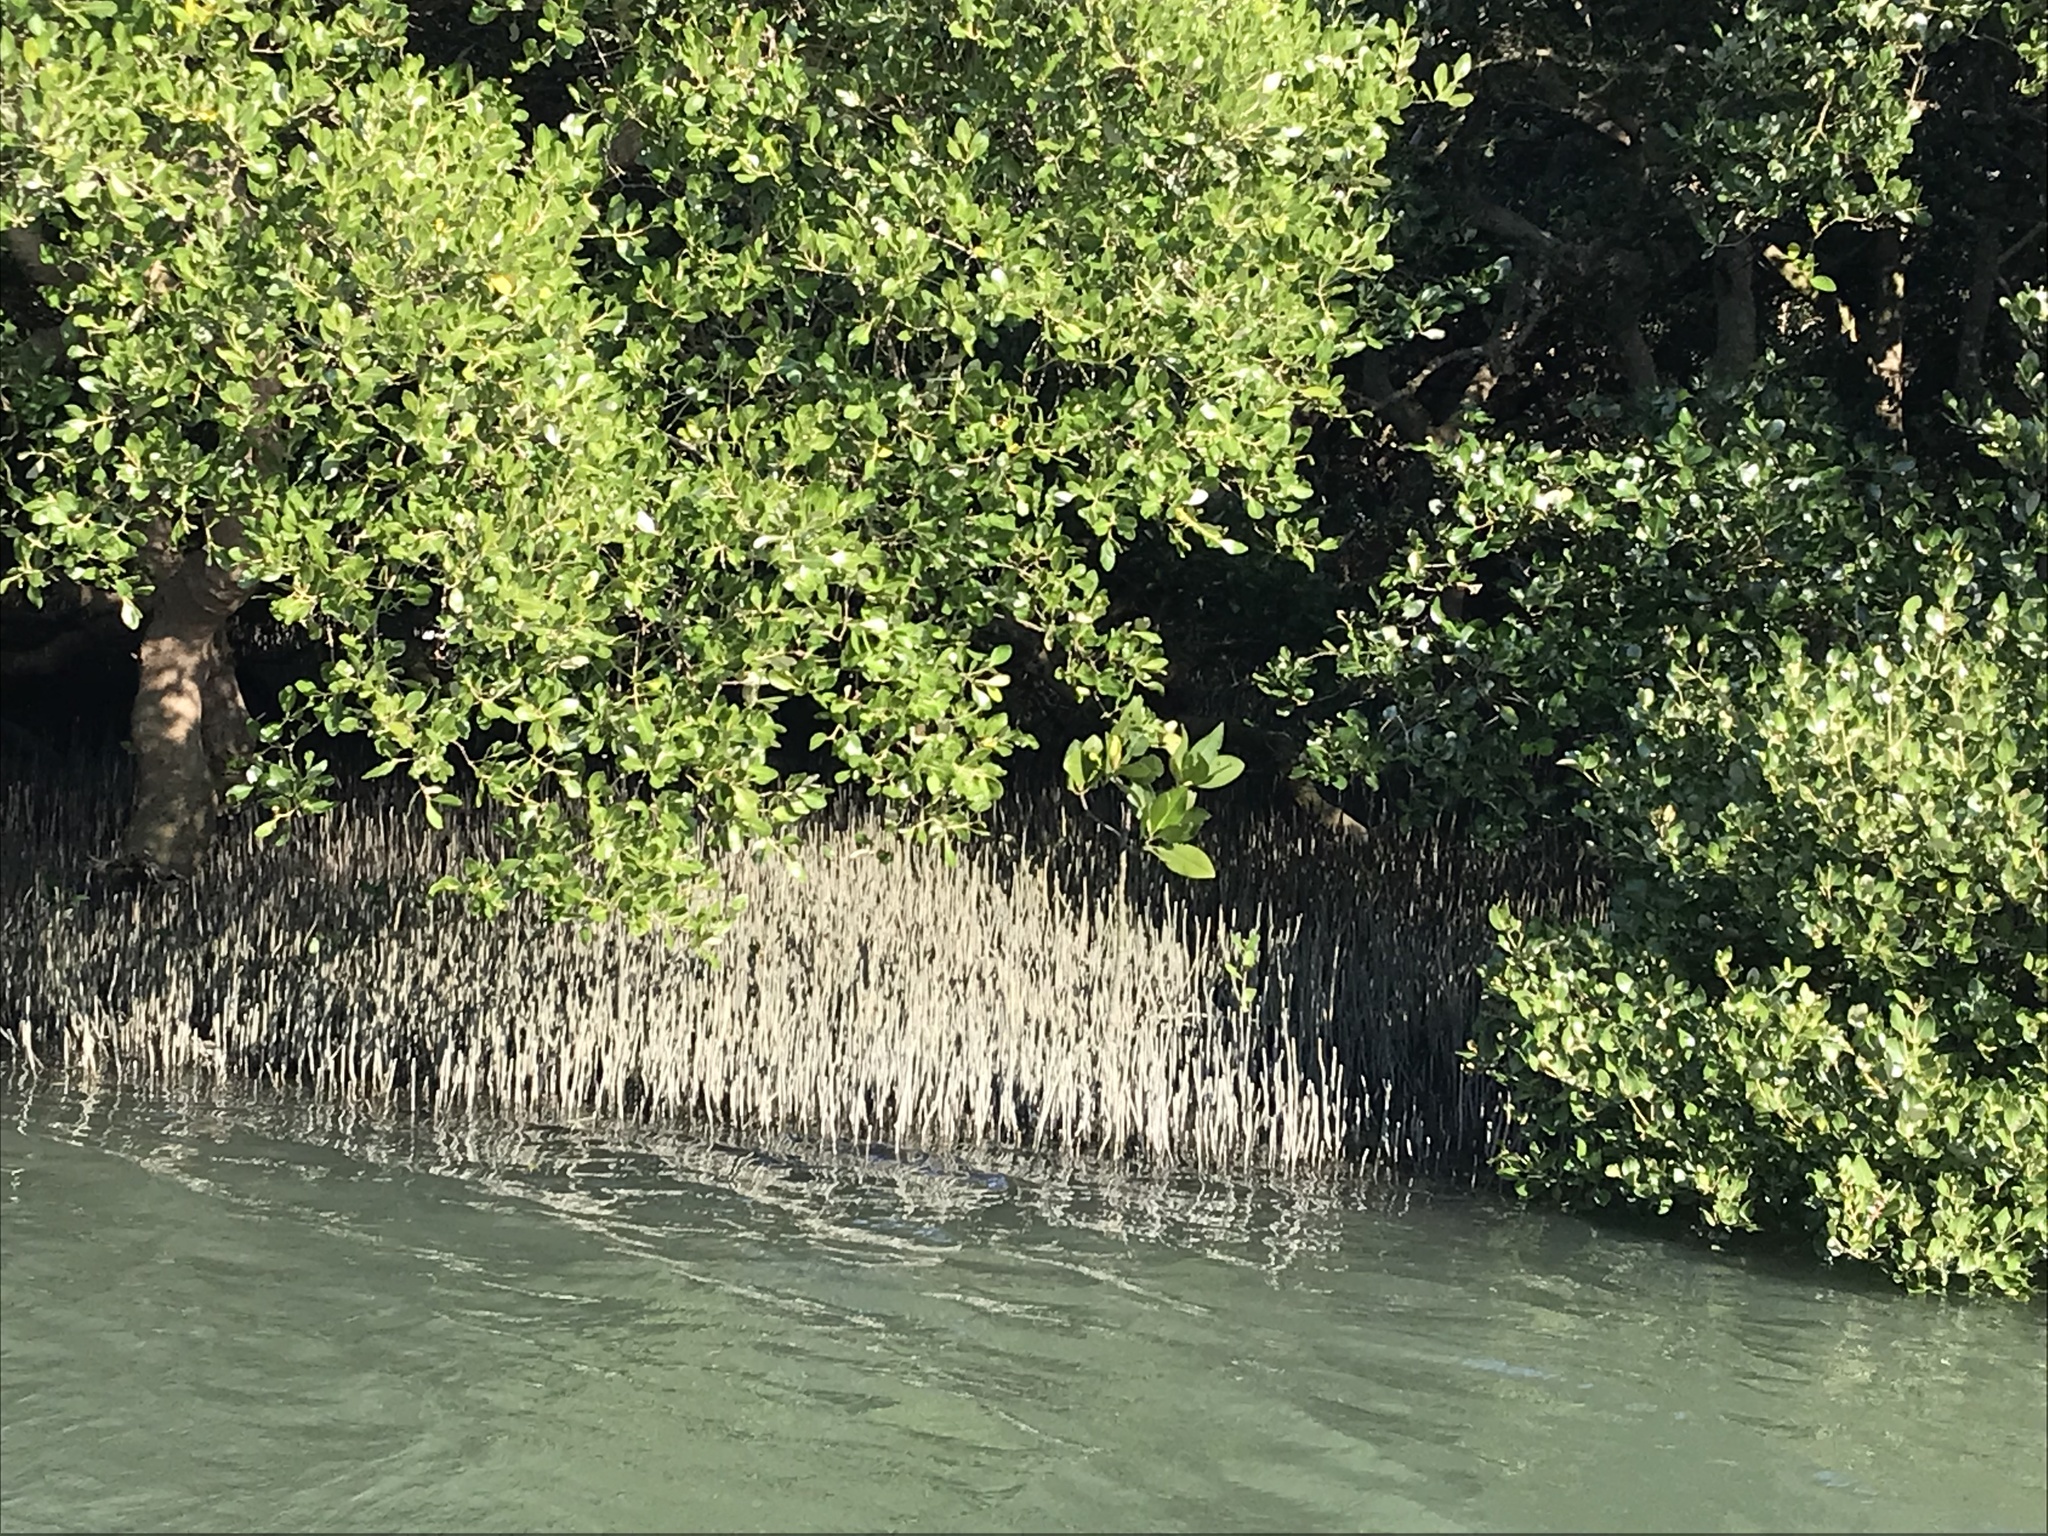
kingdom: Plantae
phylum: Tracheophyta
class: Magnoliopsida
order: Lamiales
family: Acanthaceae
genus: Avicennia
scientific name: Avicennia marina
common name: Gray mangrove
